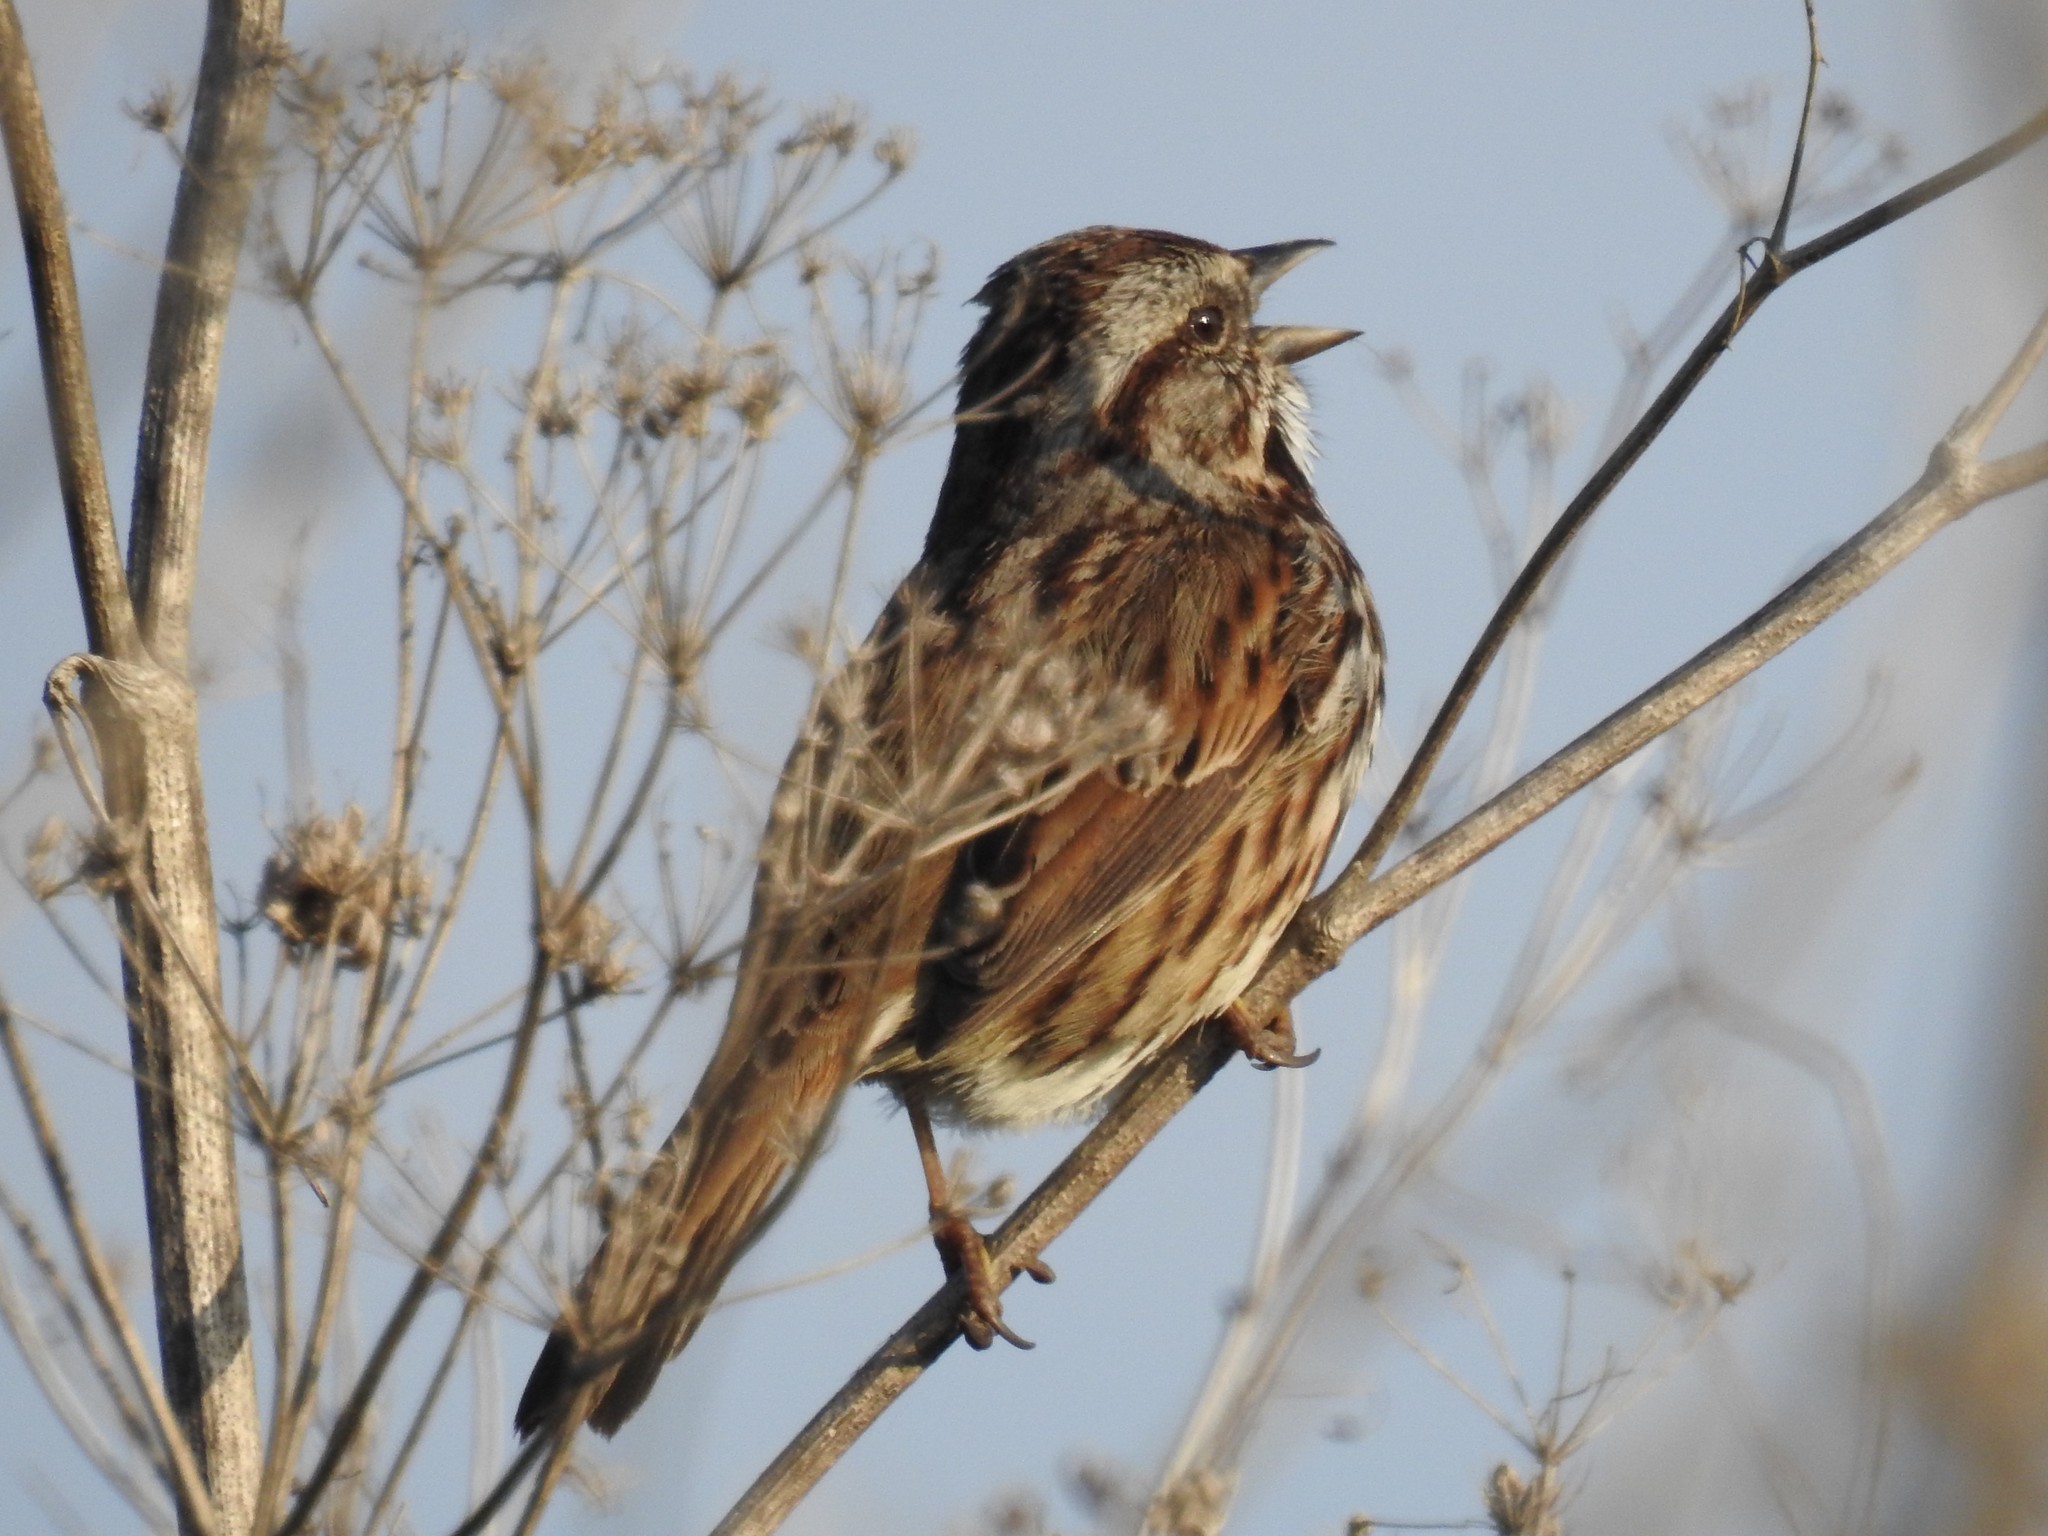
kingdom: Animalia
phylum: Chordata
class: Aves
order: Passeriformes
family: Passerellidae
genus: Melospiza
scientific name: Melospiza melodia
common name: Song sparrow
